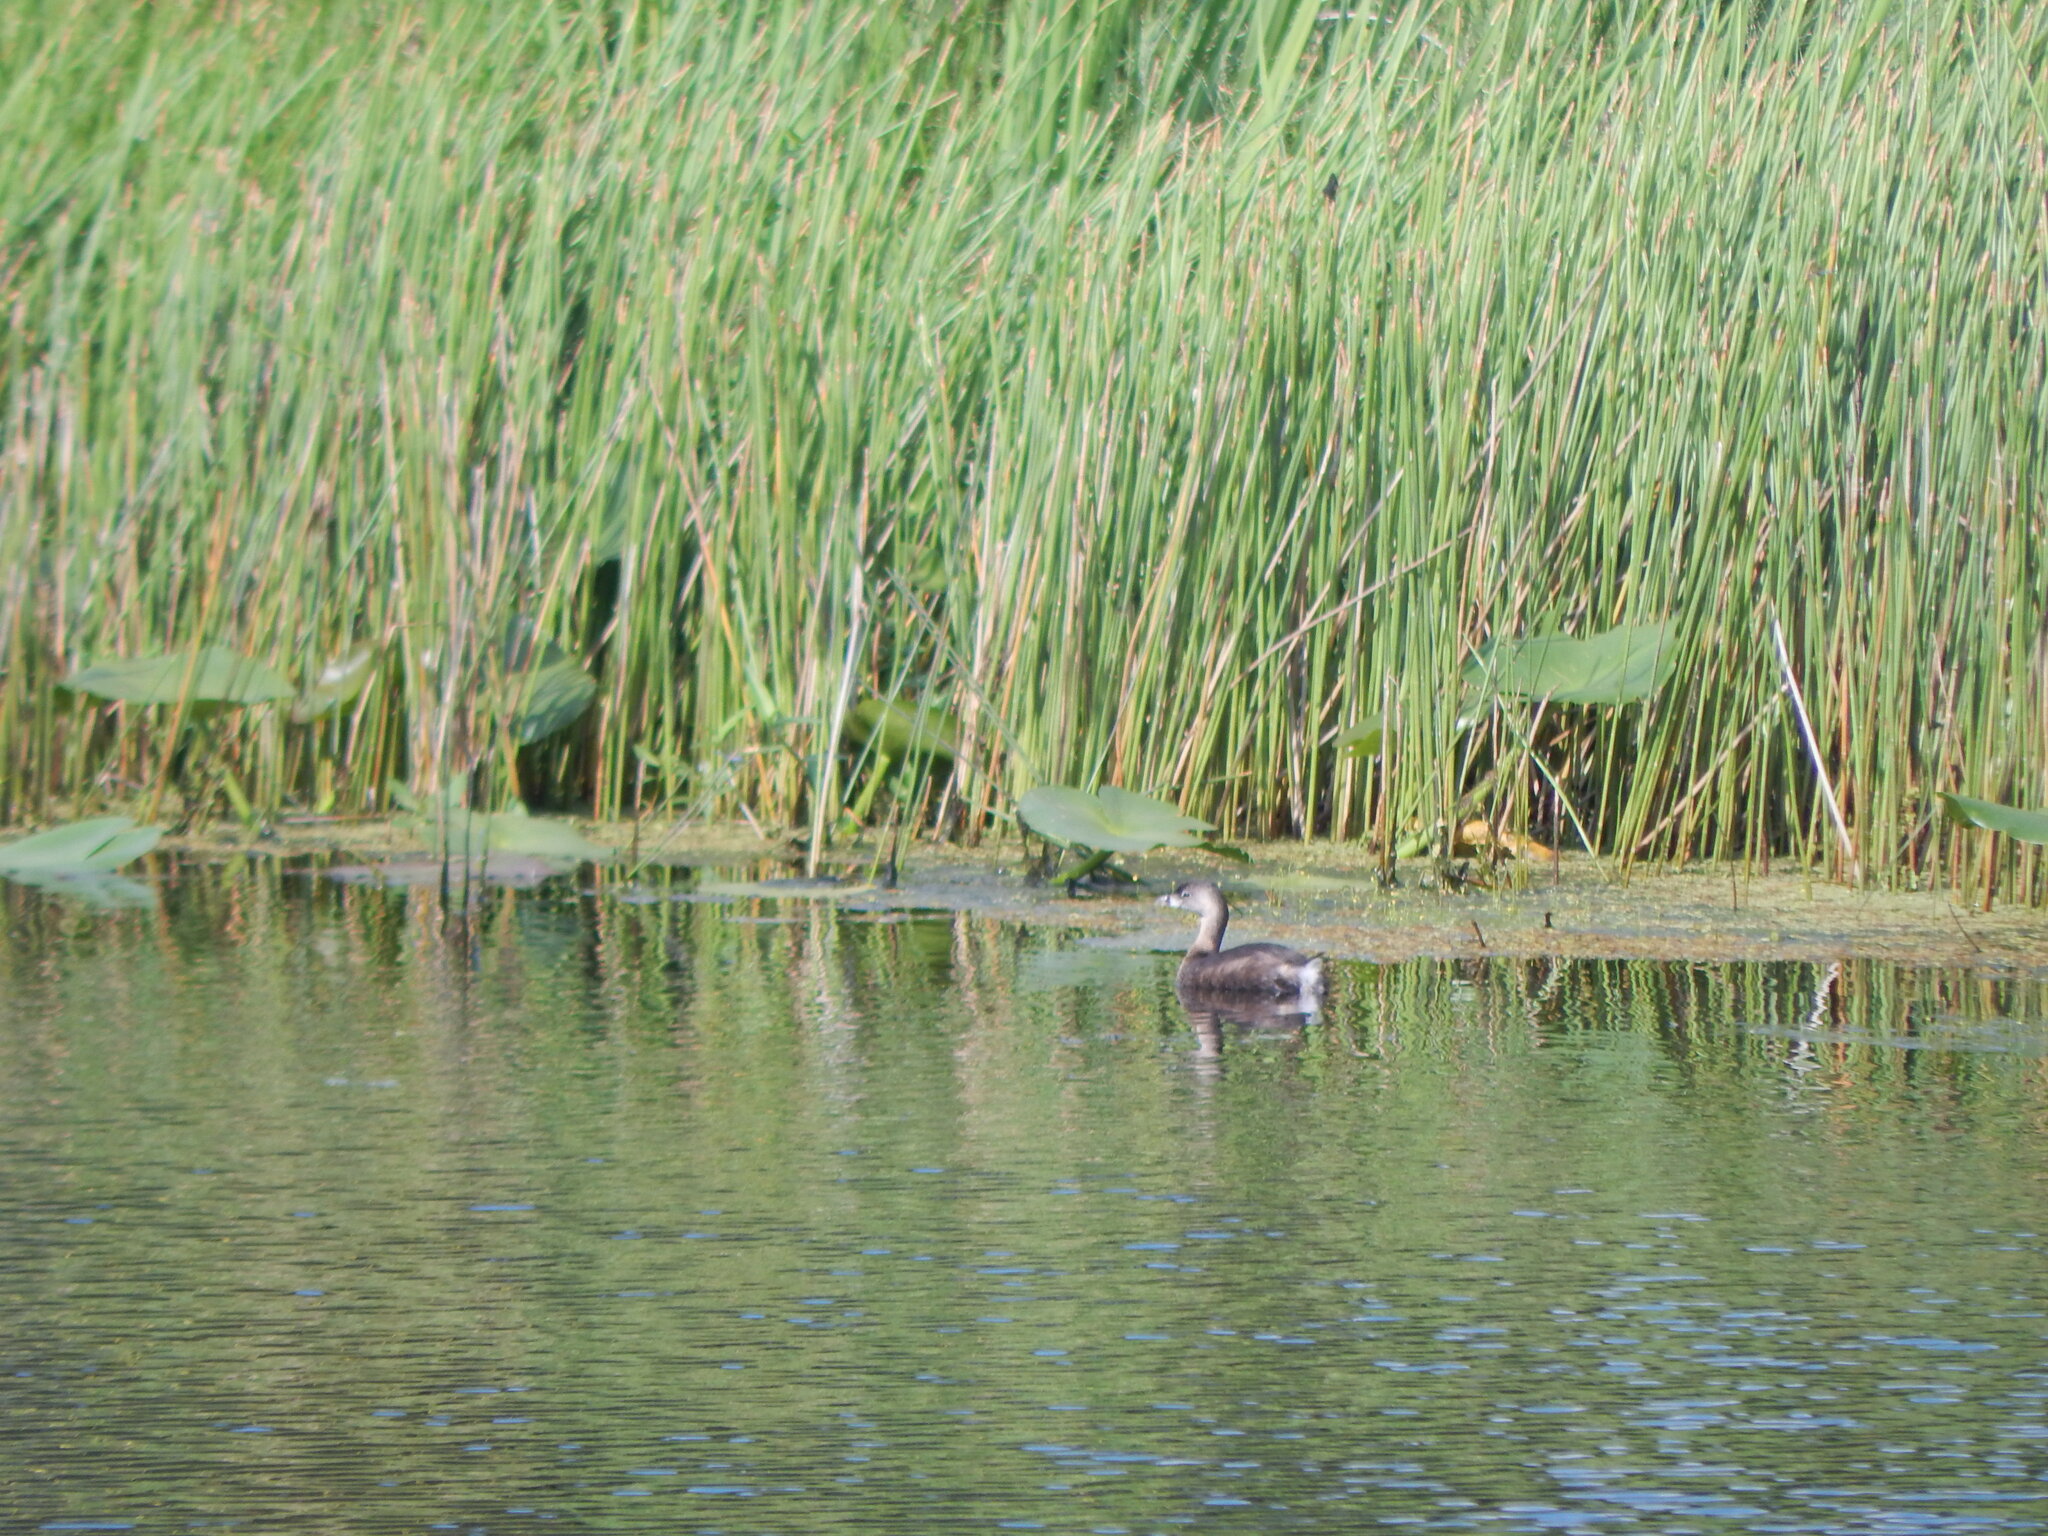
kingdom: Animalia
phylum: Chordata
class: Aves
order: Podicipediformes
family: Podicipedidae
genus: Podilymbus
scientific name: Podilymbus podiceps
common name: Pied-billed grebe
